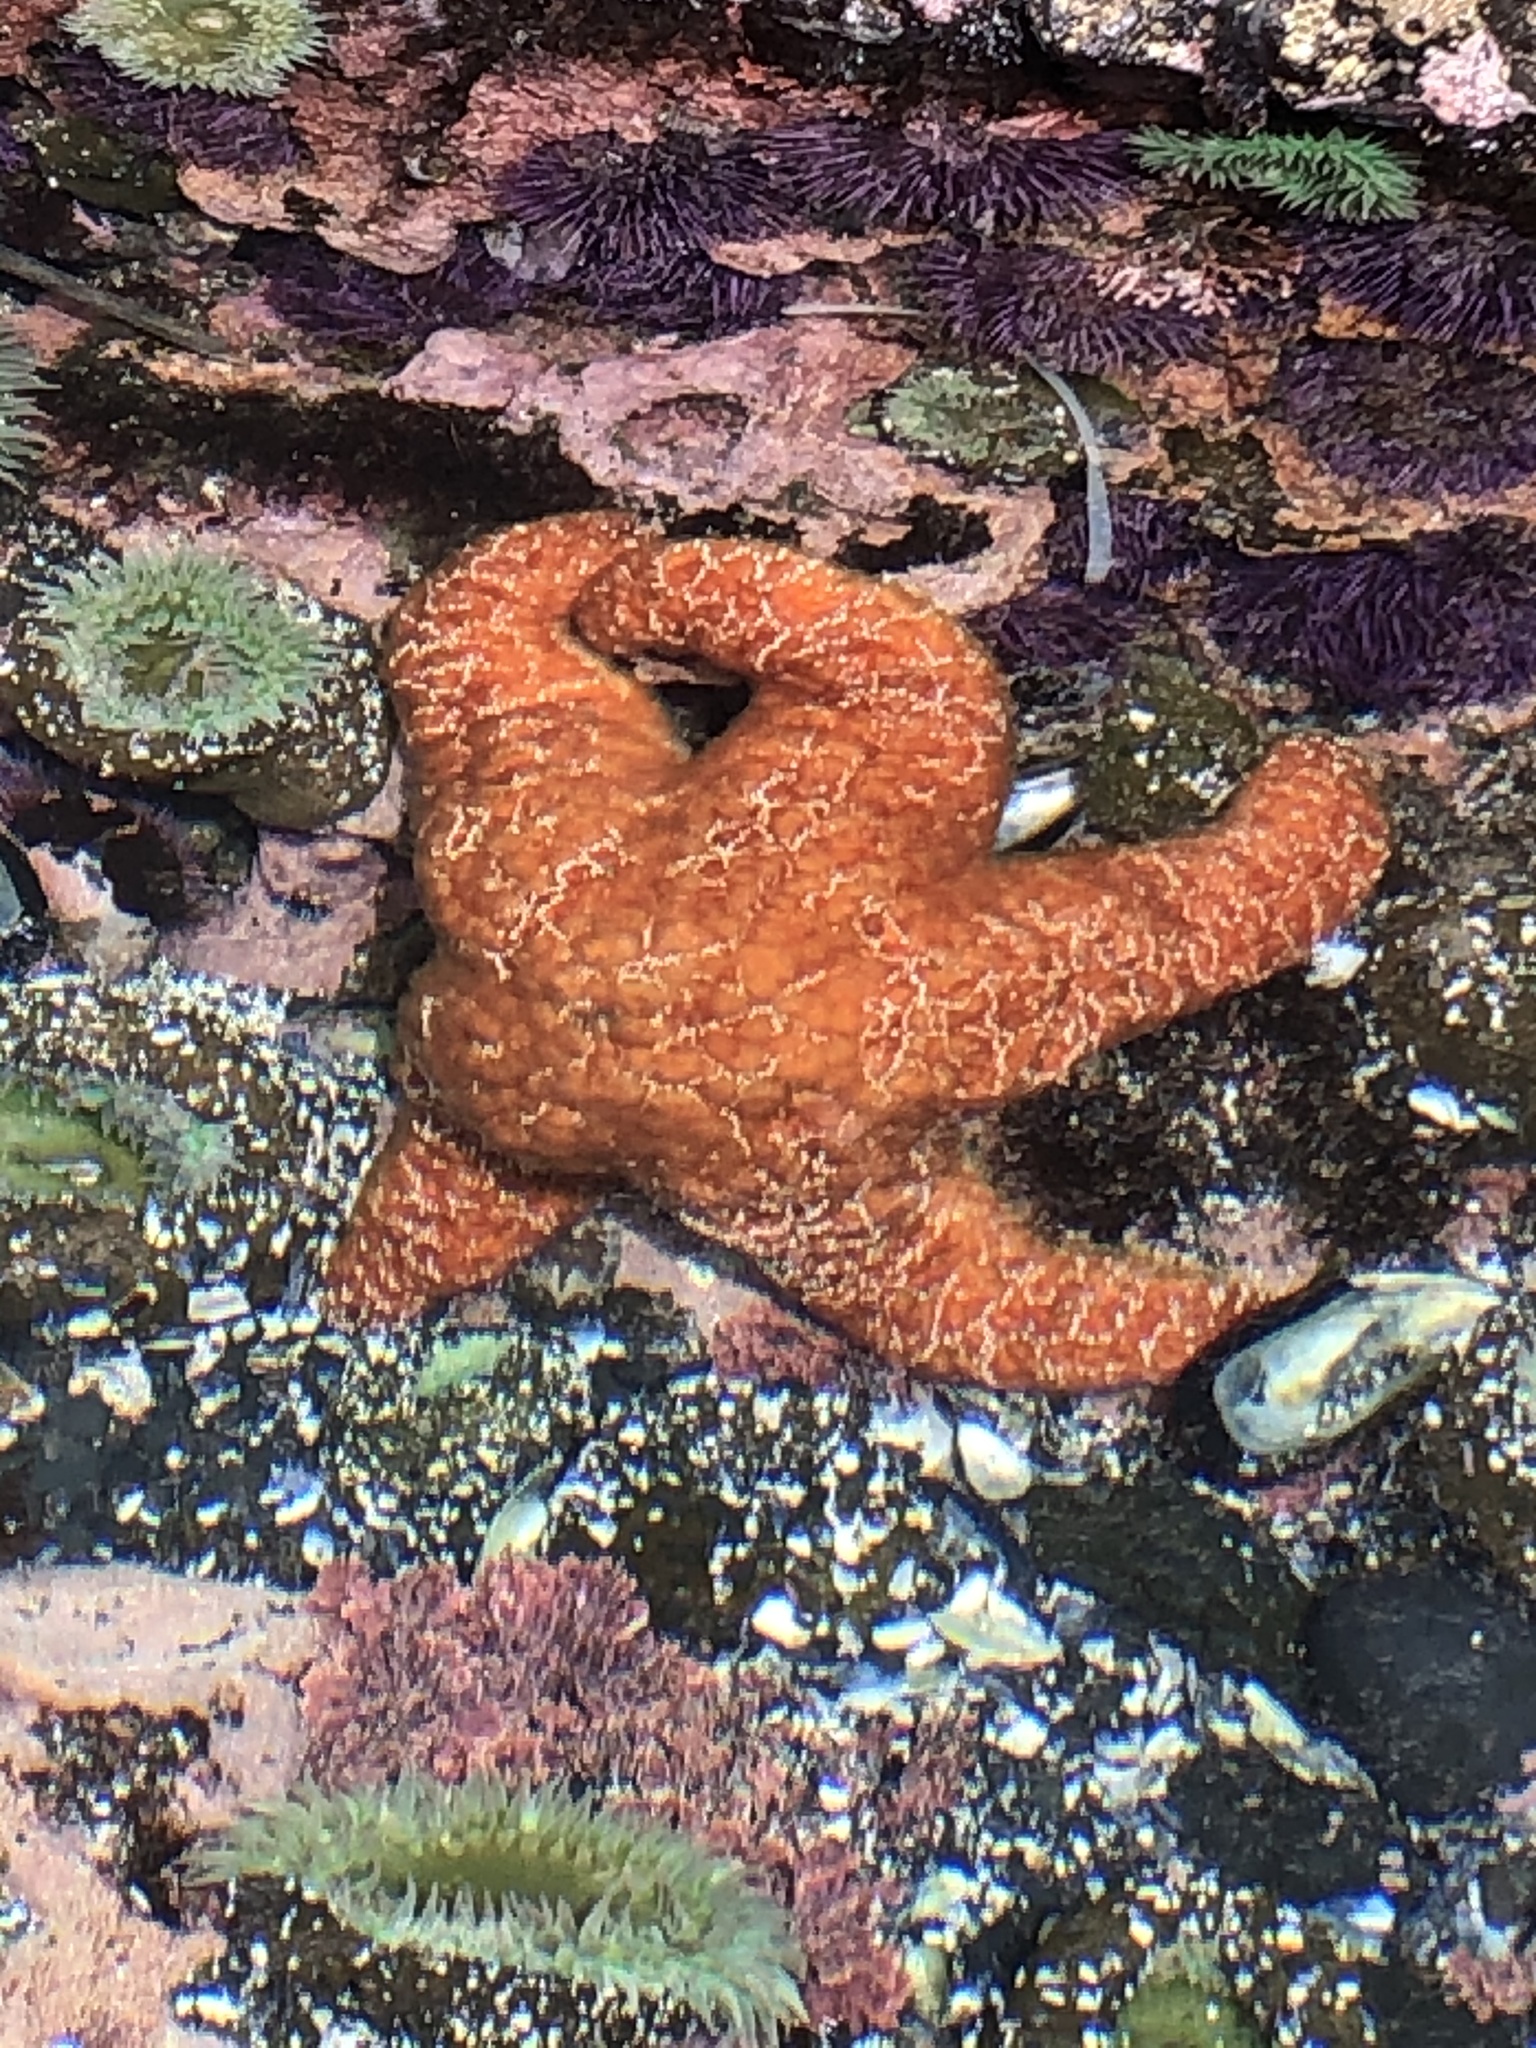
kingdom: Animalia
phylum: Echinodermata
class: Asteroidea
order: Forcipulatida
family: Asteriidae
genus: Pisaster
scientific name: Pisaster ochraceus
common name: Ochre stars
